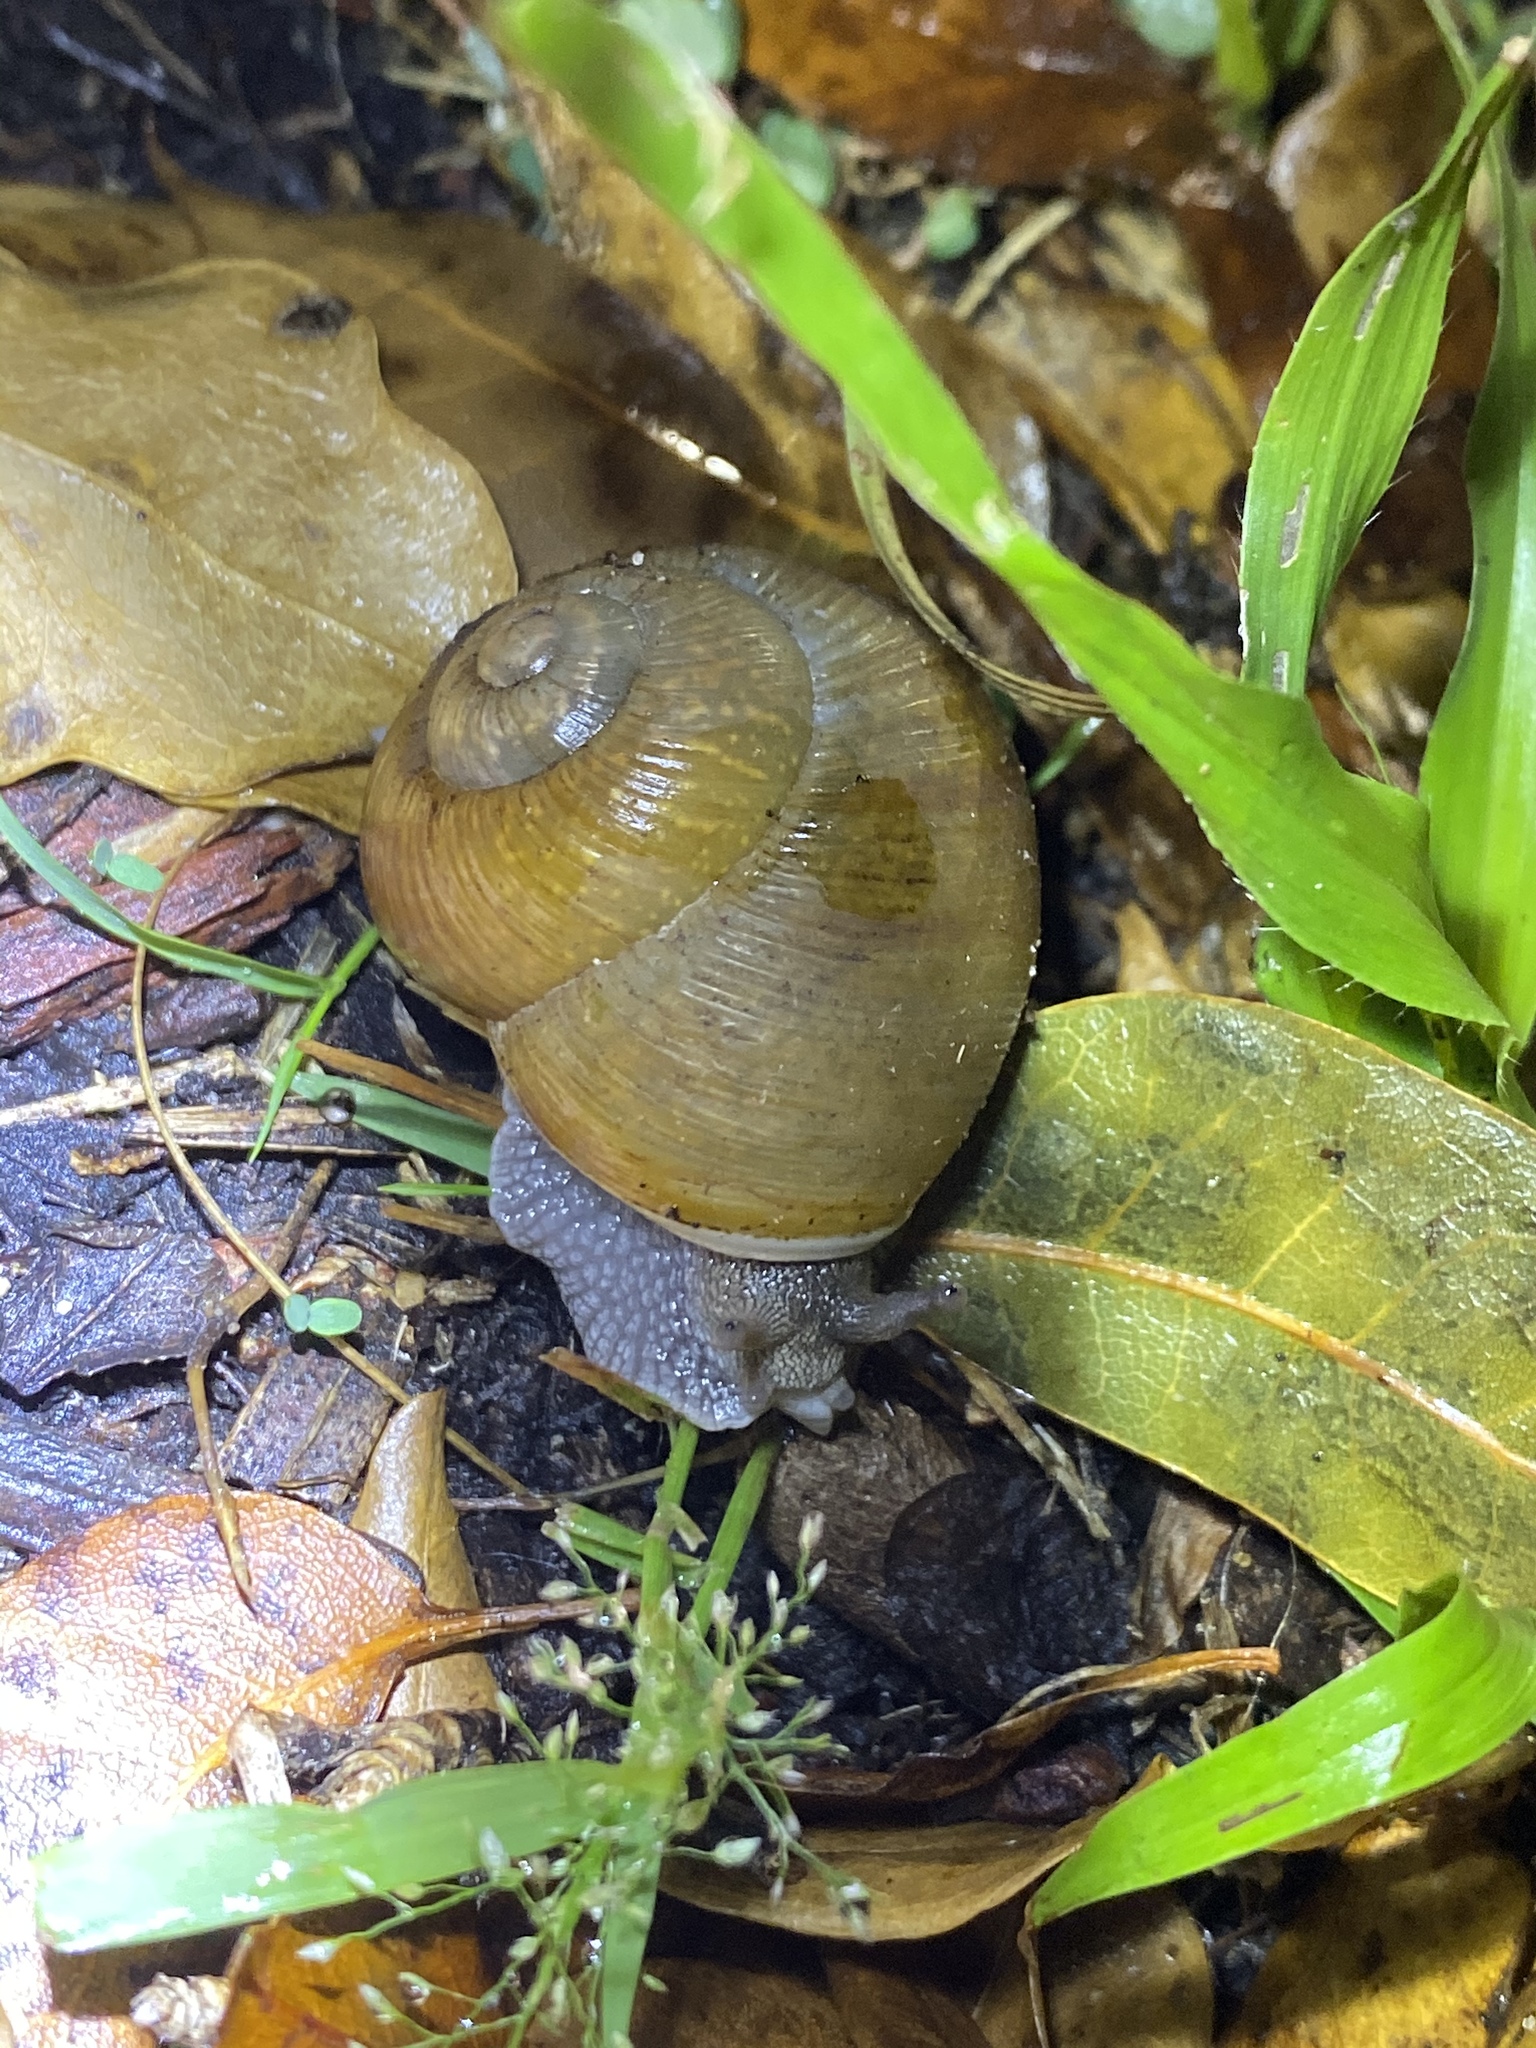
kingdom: Animalia
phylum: Mollusca
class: Gastropoda
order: Stylommatophora
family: Zachrysiidae
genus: Zachrysia
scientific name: Zachrysia provisoria
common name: Garden zachrysia
